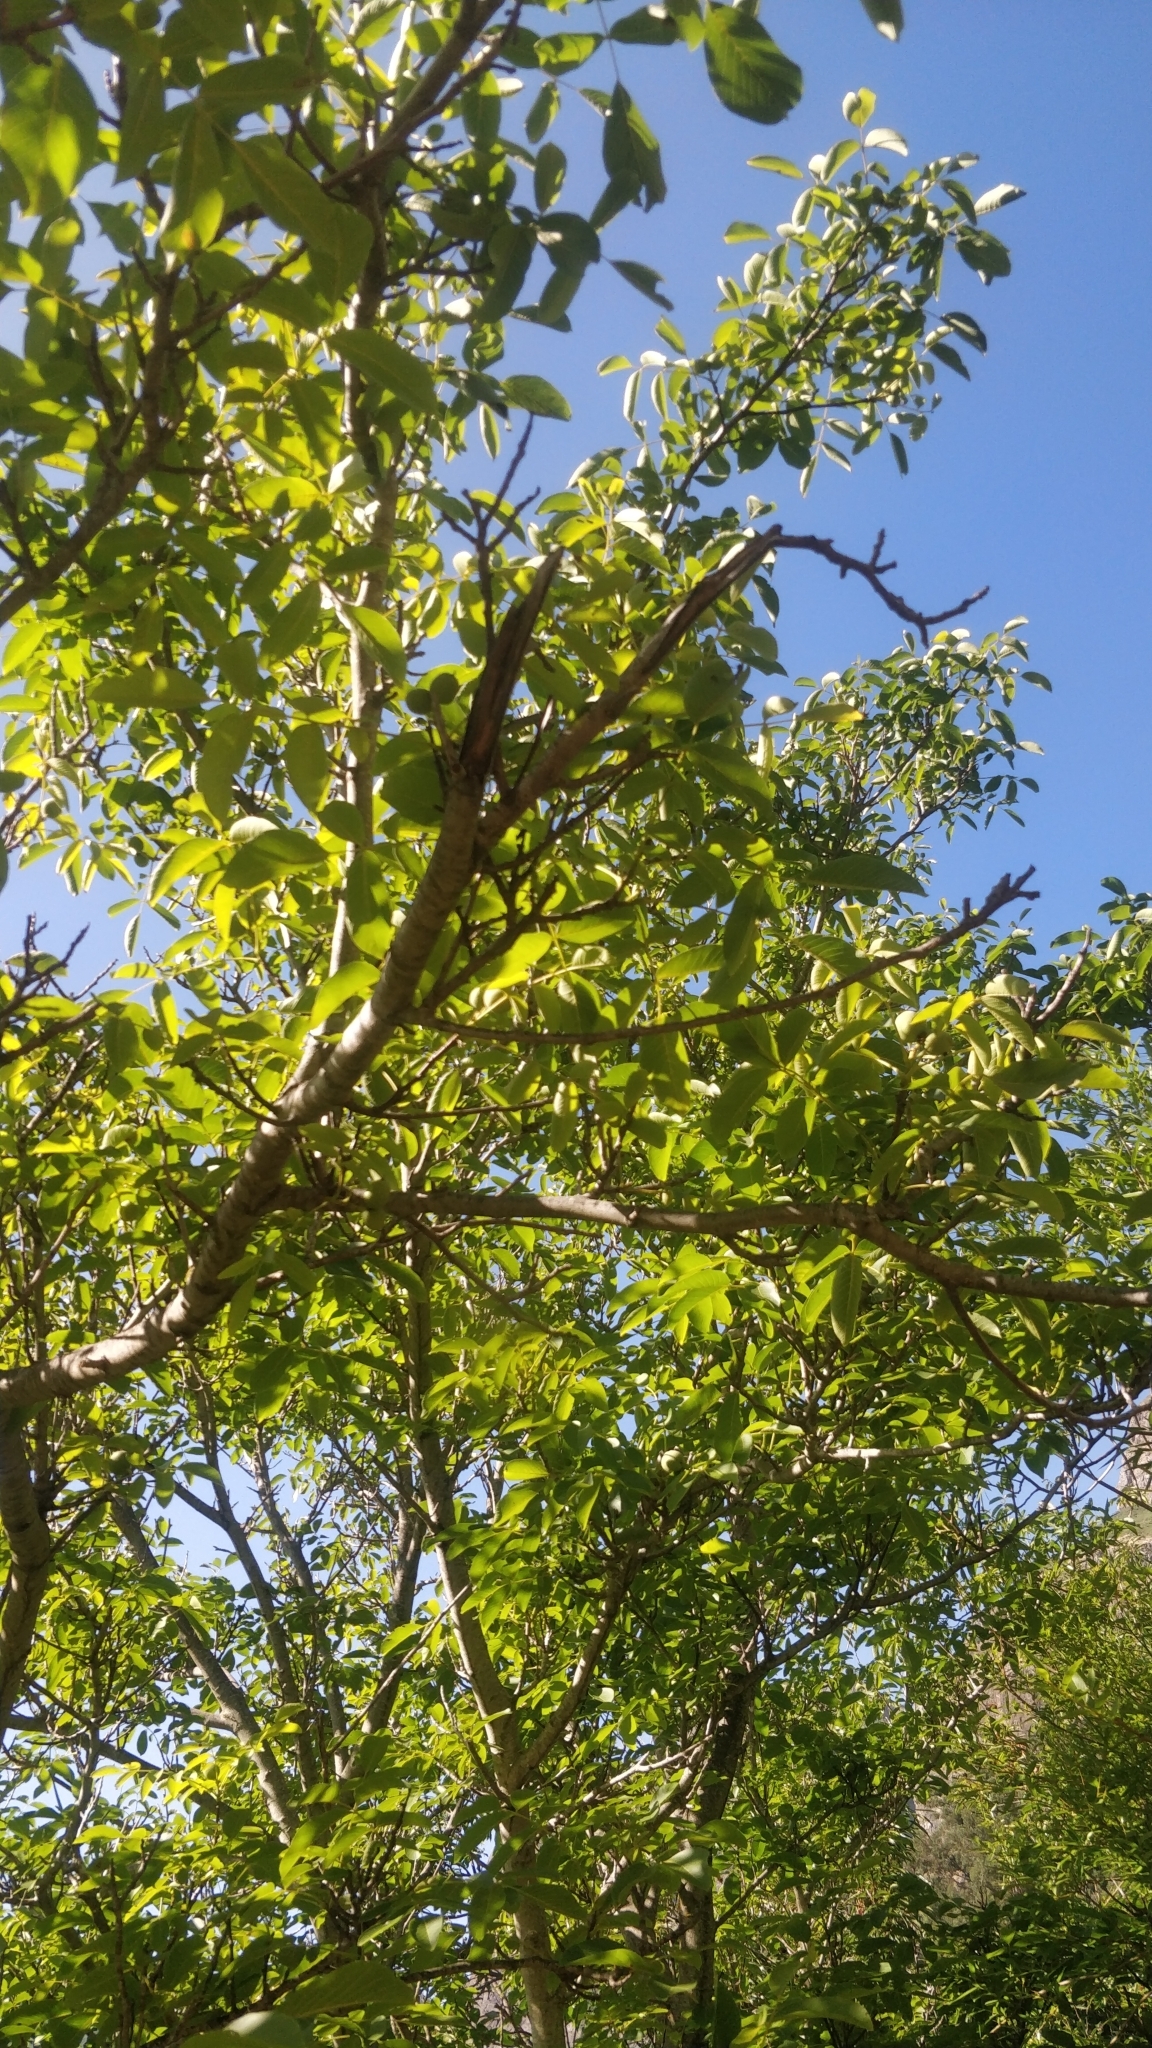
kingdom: Plantae
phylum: Tracheophyta
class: Magnoliopsida
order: Fagales
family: Juglandaceae
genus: Juglans
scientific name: Juglans regia
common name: Walnut
